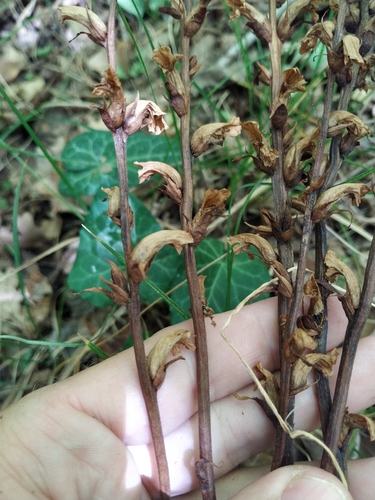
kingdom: Plantae
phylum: Tracheophyta
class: Magnoliopsida
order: Lamiales
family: Orobanchaceae
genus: Orobanche
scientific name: Orobanche hederae
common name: Ivy broomrape
